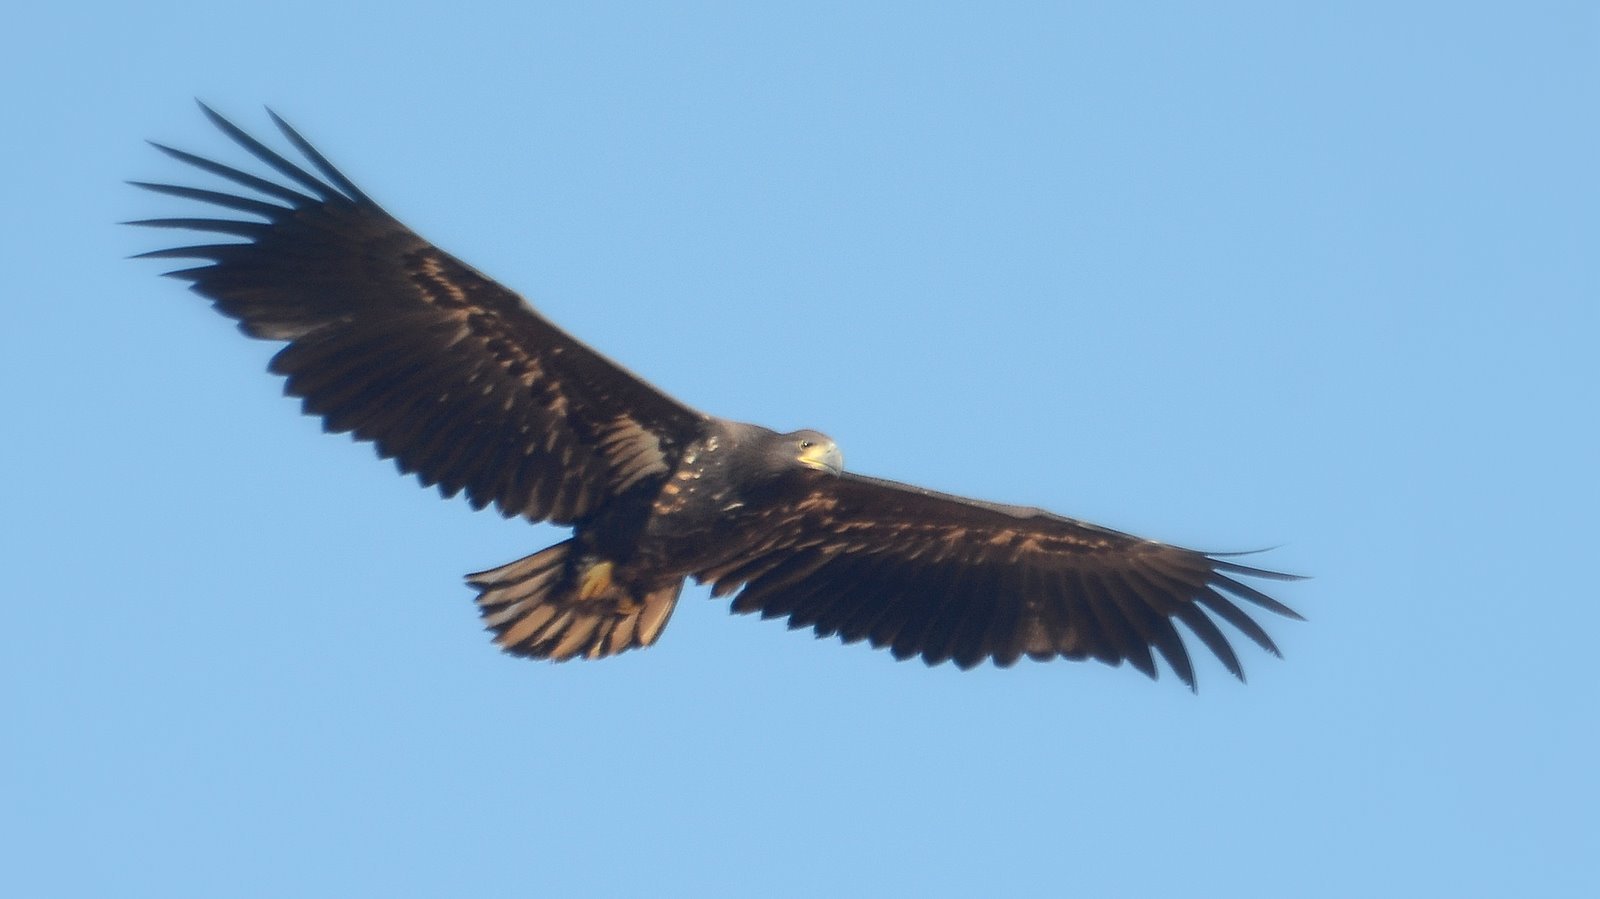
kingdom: Animalia
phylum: Chordata
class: Aves
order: Accipitriformes
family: Accipitridae
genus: Haliaeetus
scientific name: Haliaeetus albicilla
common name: White-tailed eagle
